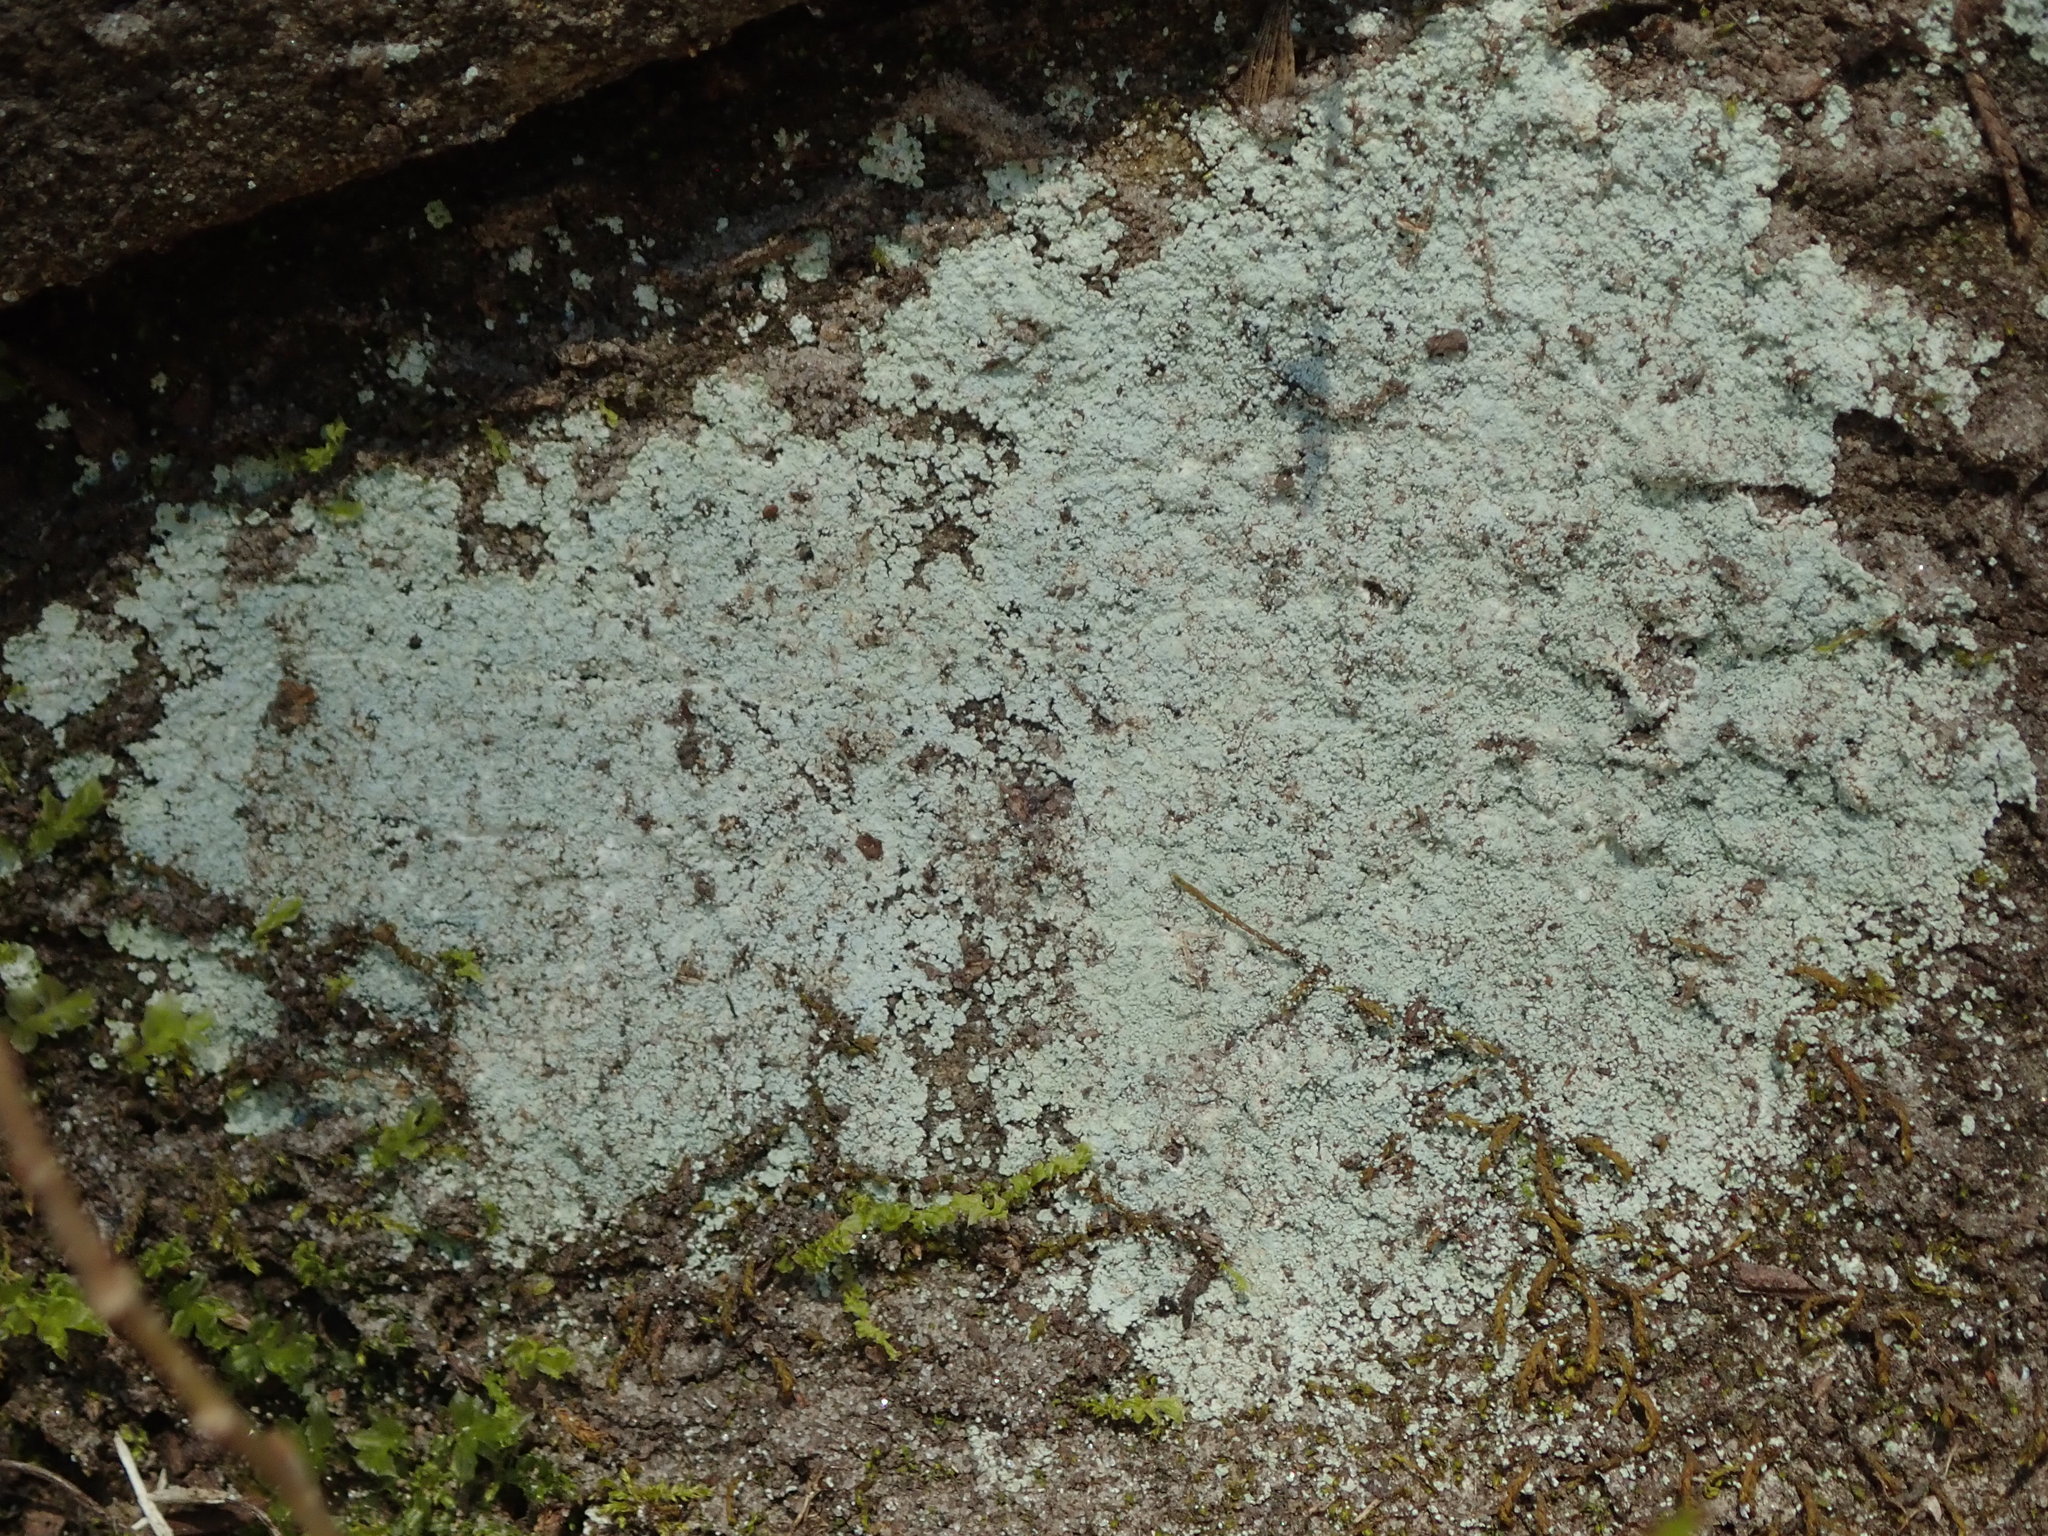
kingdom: Fungi
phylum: Ascomycota
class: Lecanoromycetes
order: Lecanorales
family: Stereocaulaceae
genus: Lepraria
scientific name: Lepraria lobificans
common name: Fluffy dust lichen
